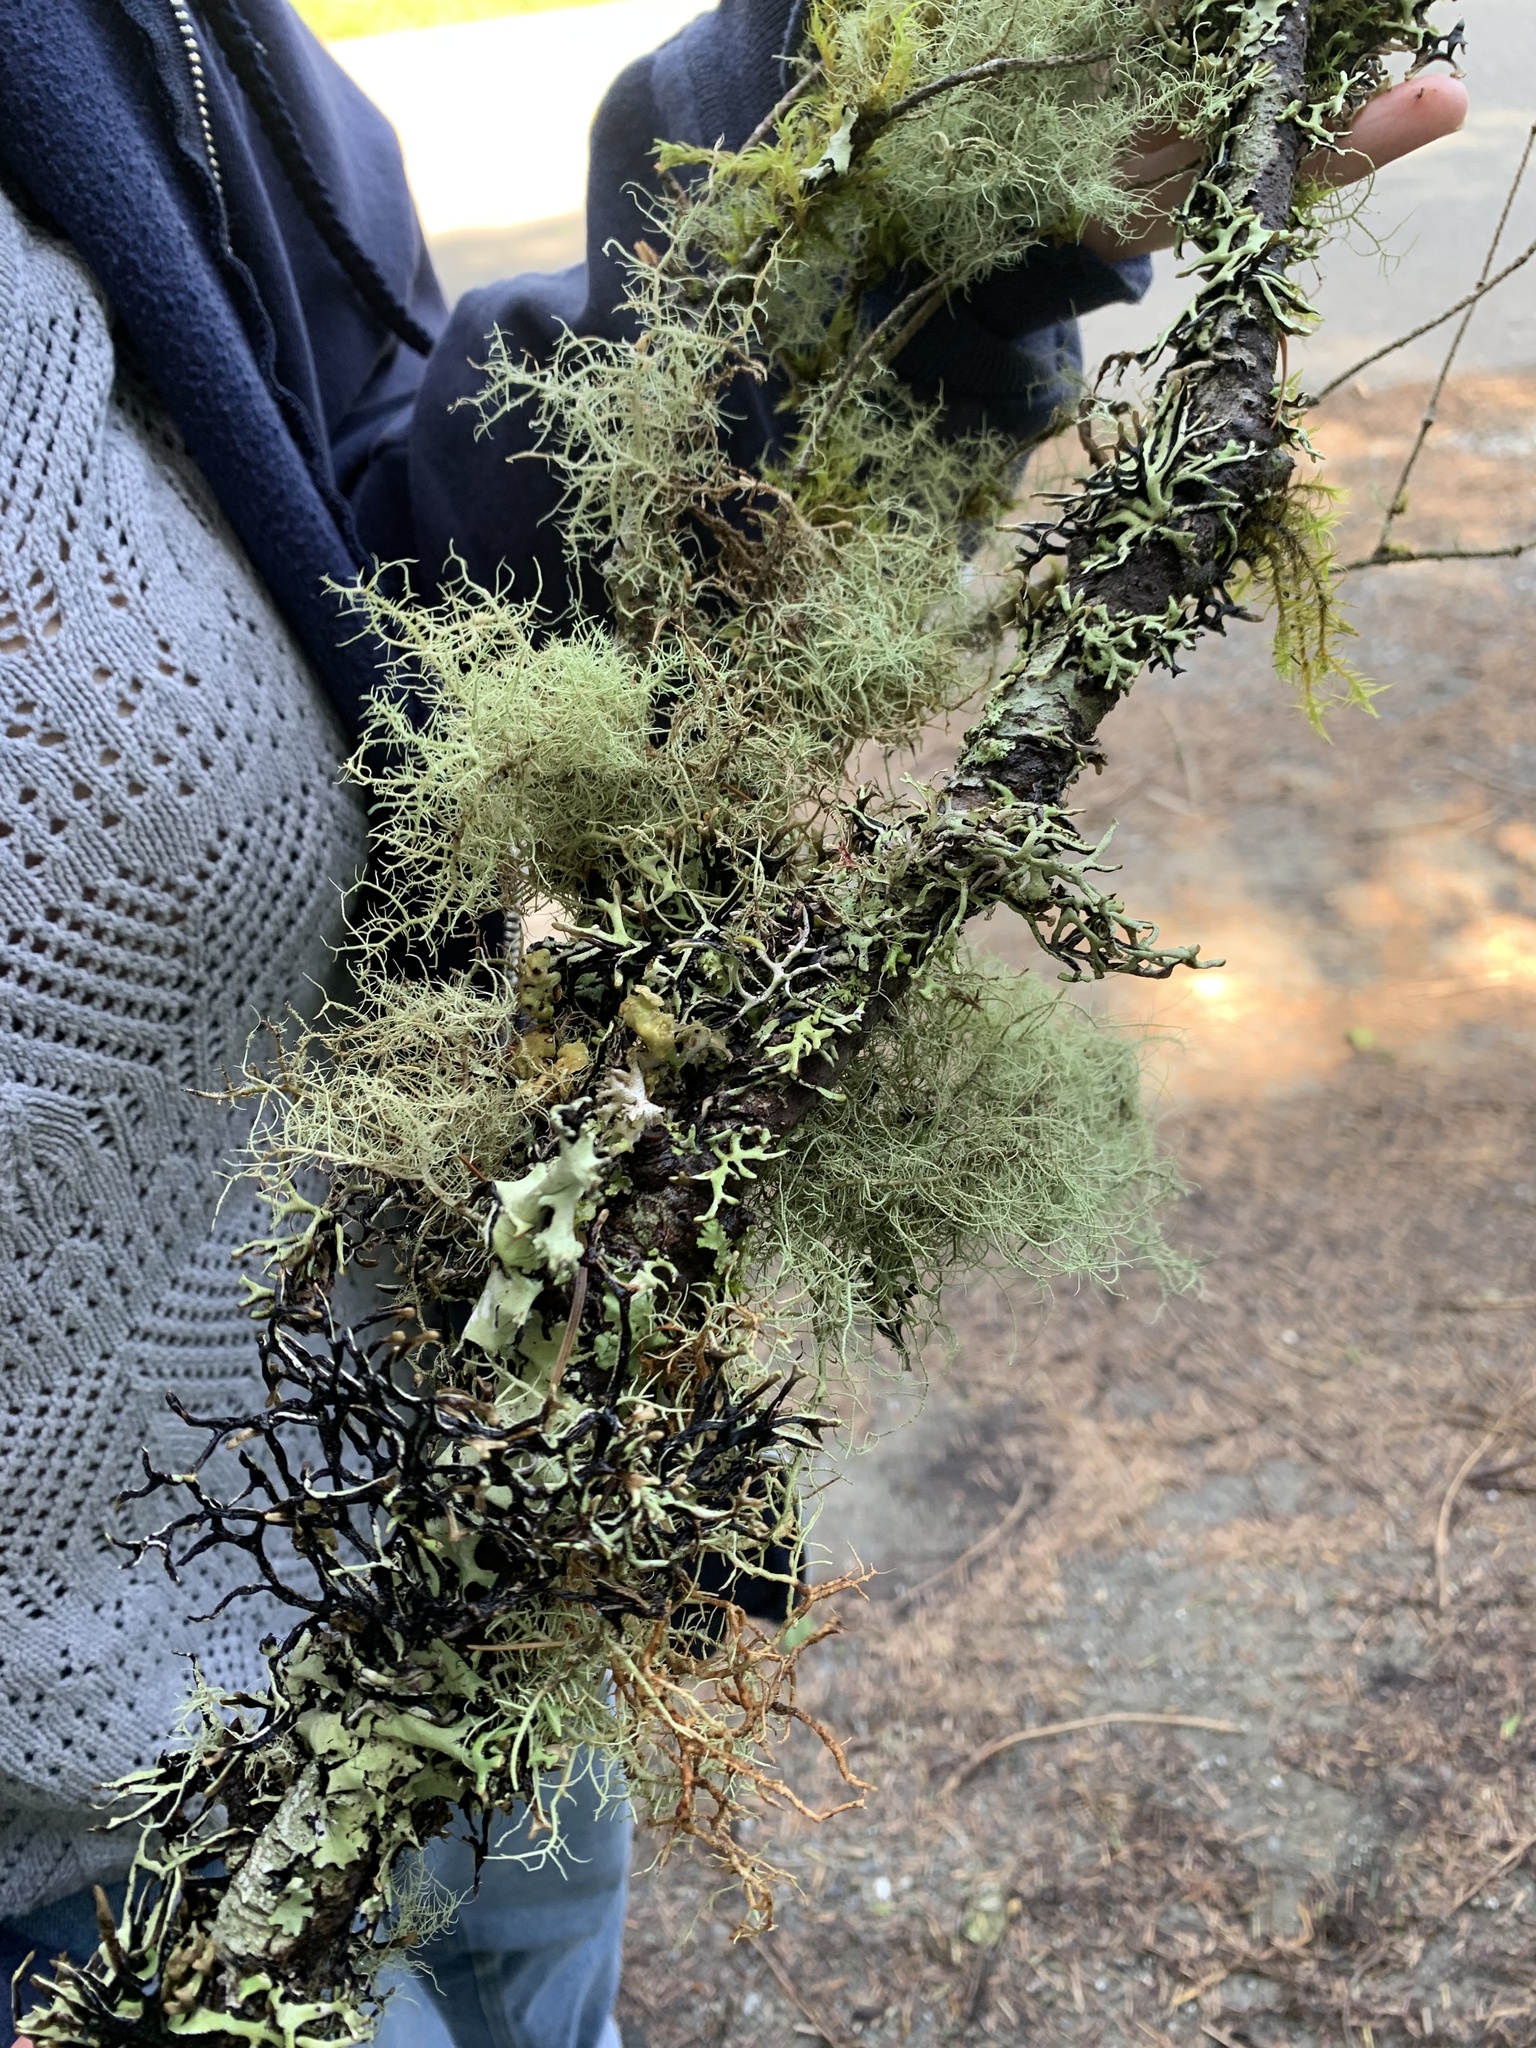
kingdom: Fungi
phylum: Ascomycota
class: Lecanoromycetes
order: Lecanorales
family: Parmeliaceae
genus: Platismatia
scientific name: Platismatia herrei
